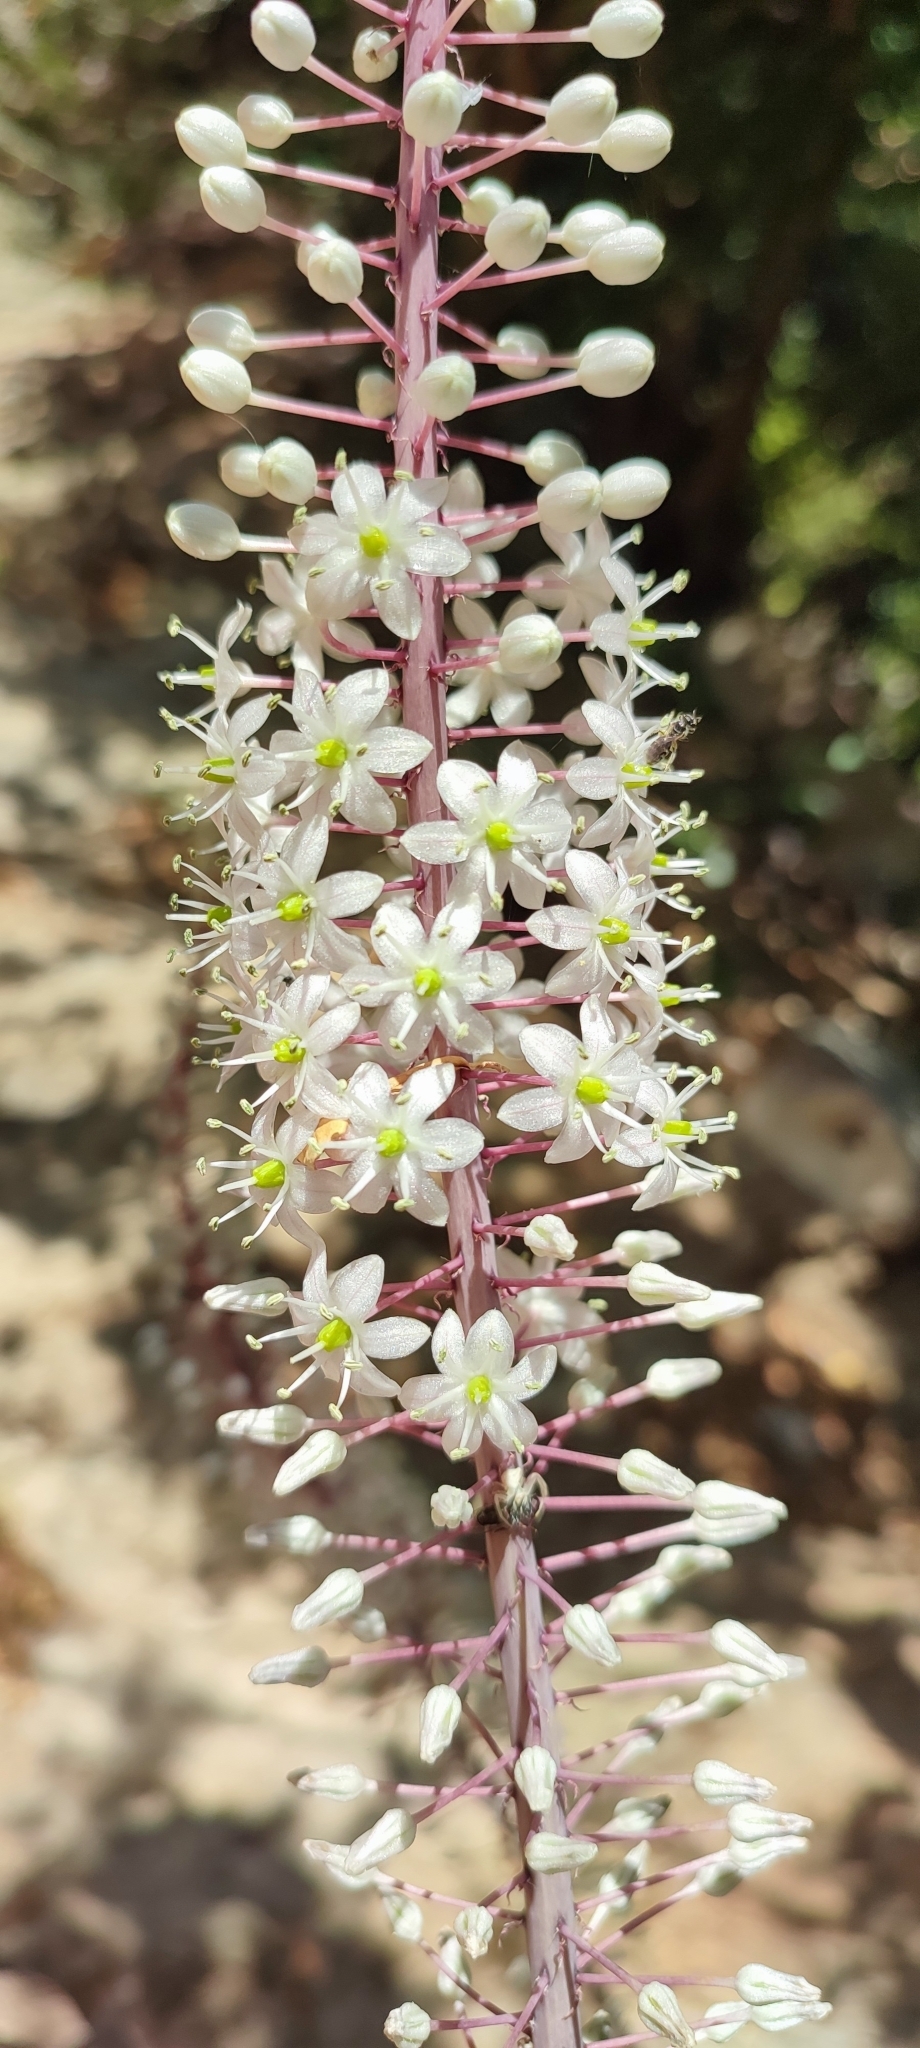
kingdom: Plantae
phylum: Tracheophyta
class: Liliopsida
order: Asparagales
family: Asparagaceae
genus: Drimia
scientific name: Drimia aphylla
